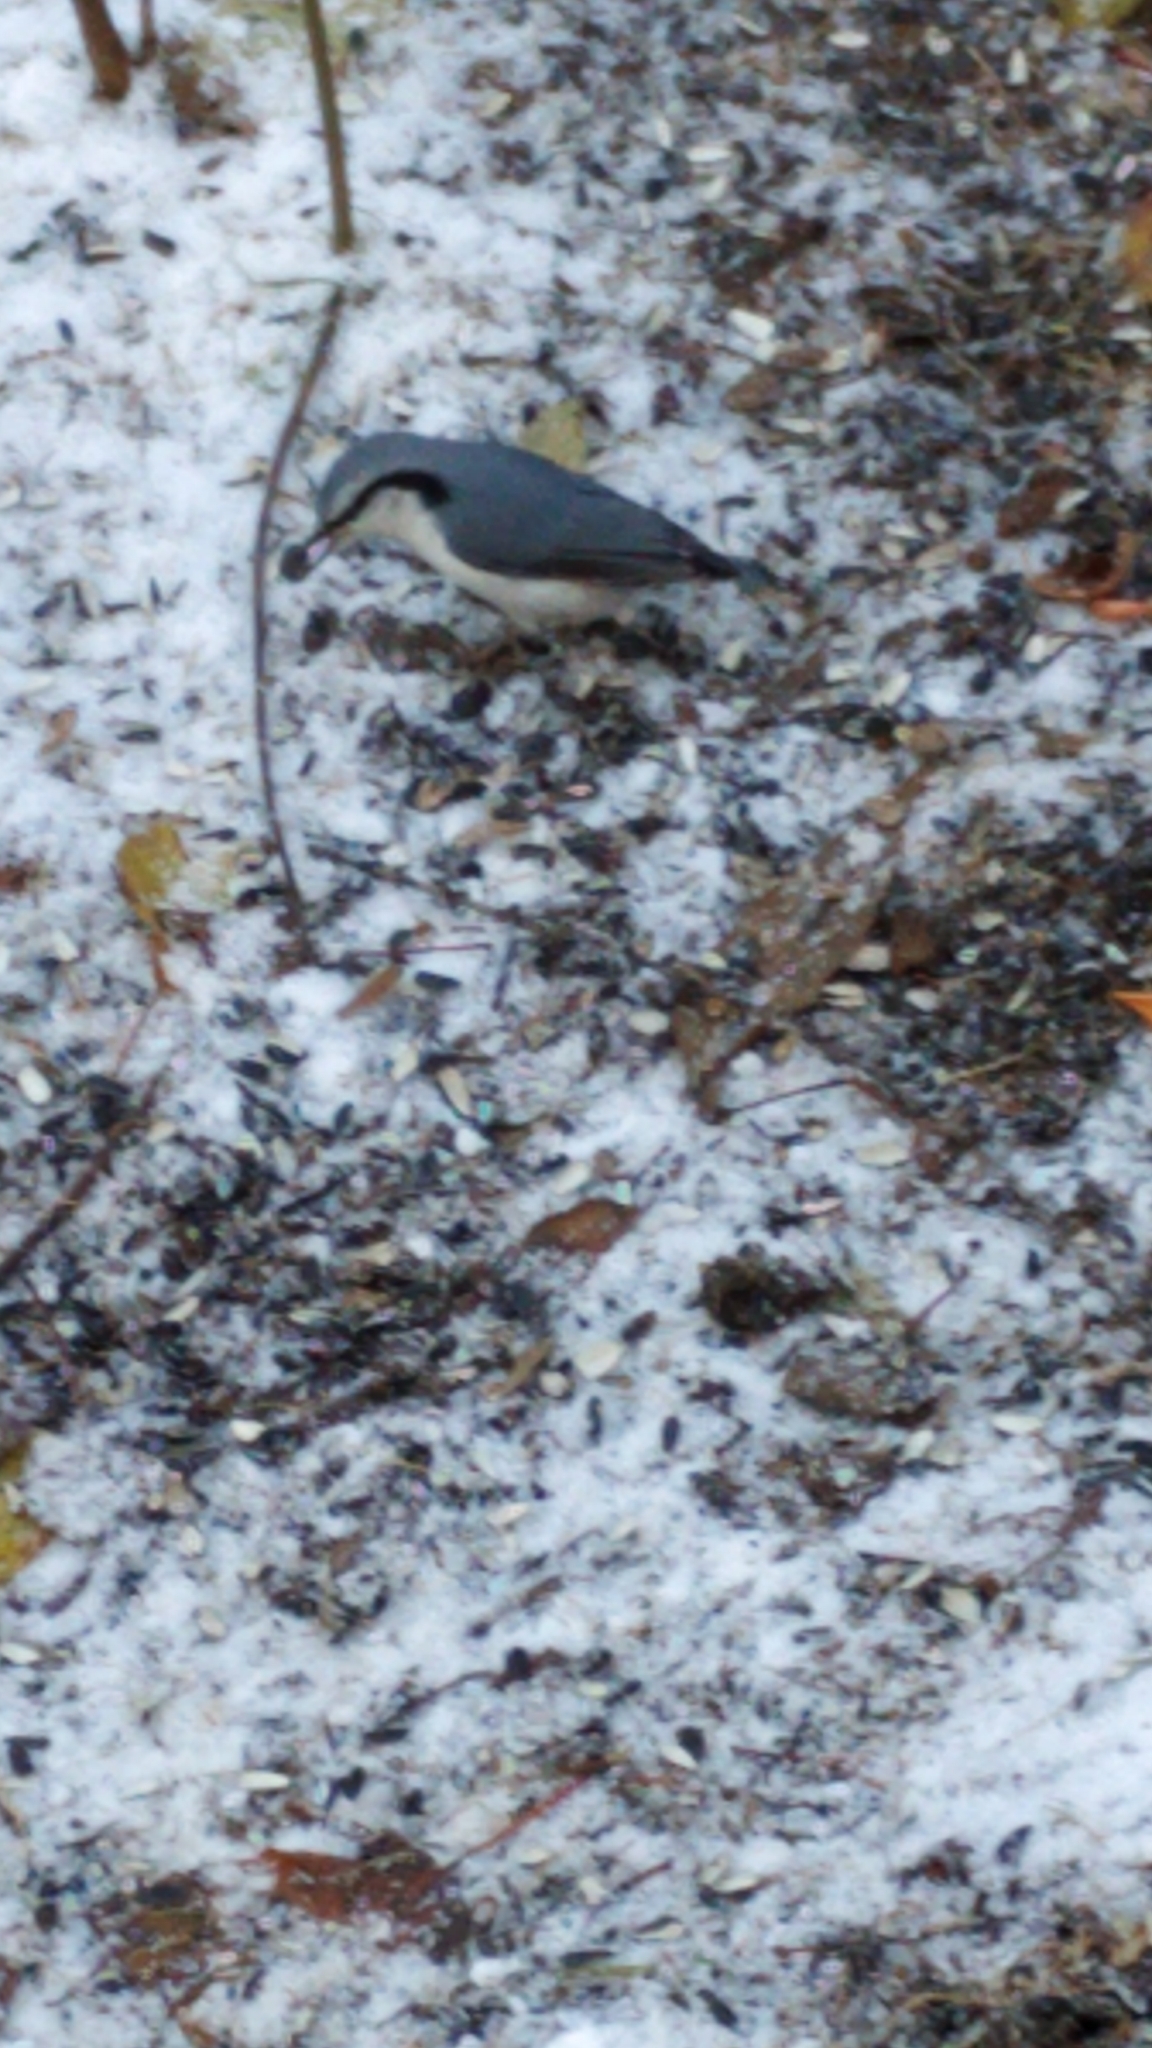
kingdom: Animalia
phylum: Chordata
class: Aves
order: Passeriformes
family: Sittidae
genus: Sitta
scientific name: Sitta europaea
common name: Eurasian nuthatch
